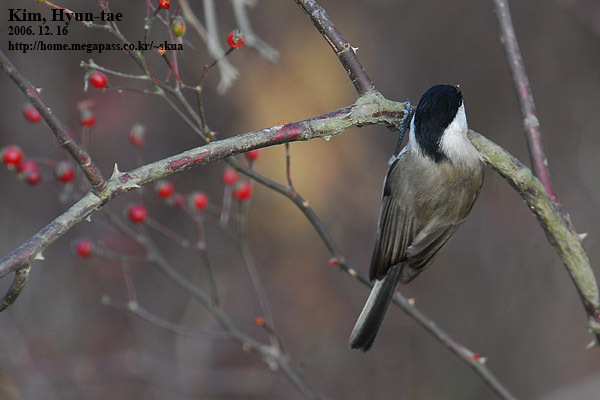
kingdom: Animalia
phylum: Chordata
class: Aves
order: Passeriformes
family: Paridae
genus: Poecile
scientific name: Poecile palustris
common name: Marsh tit
